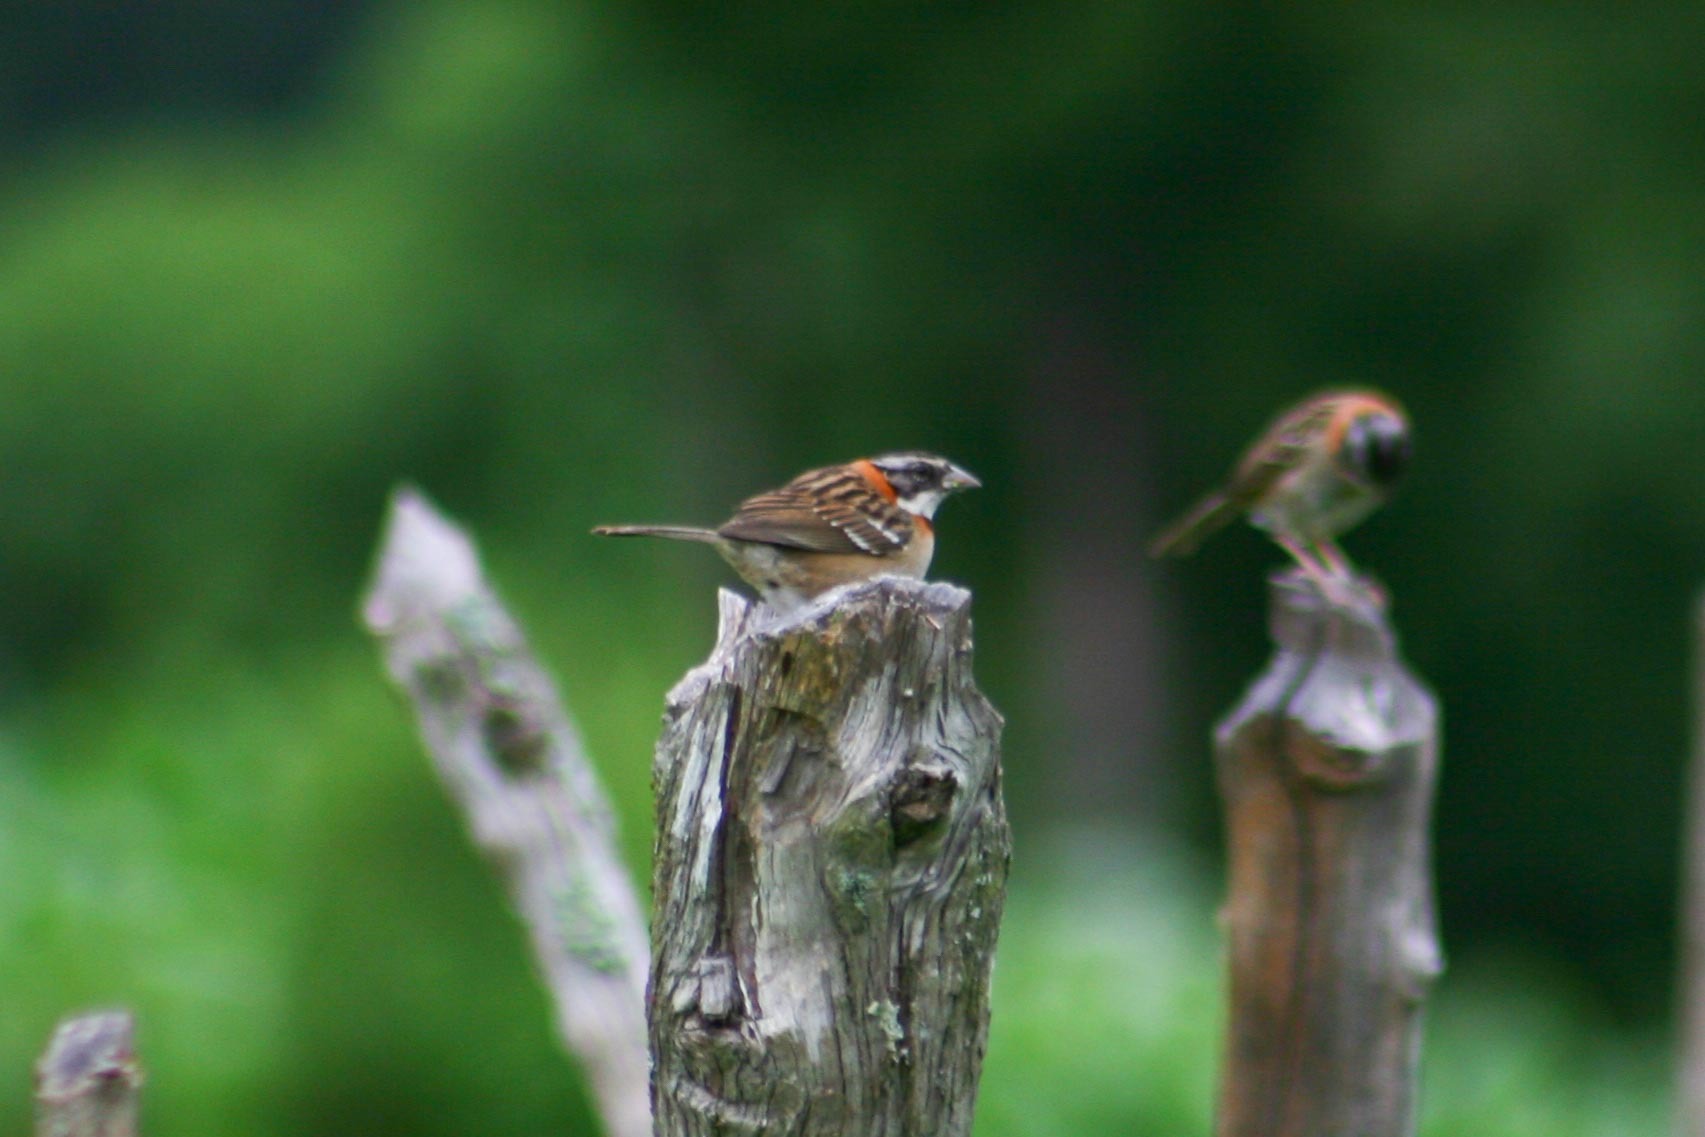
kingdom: Animalia
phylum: Chordata
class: Aves
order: Passeriformes
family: Passerellidae
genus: Zonotrichia
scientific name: Zonotrichia capensis
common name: Rufous-collared sparrow
